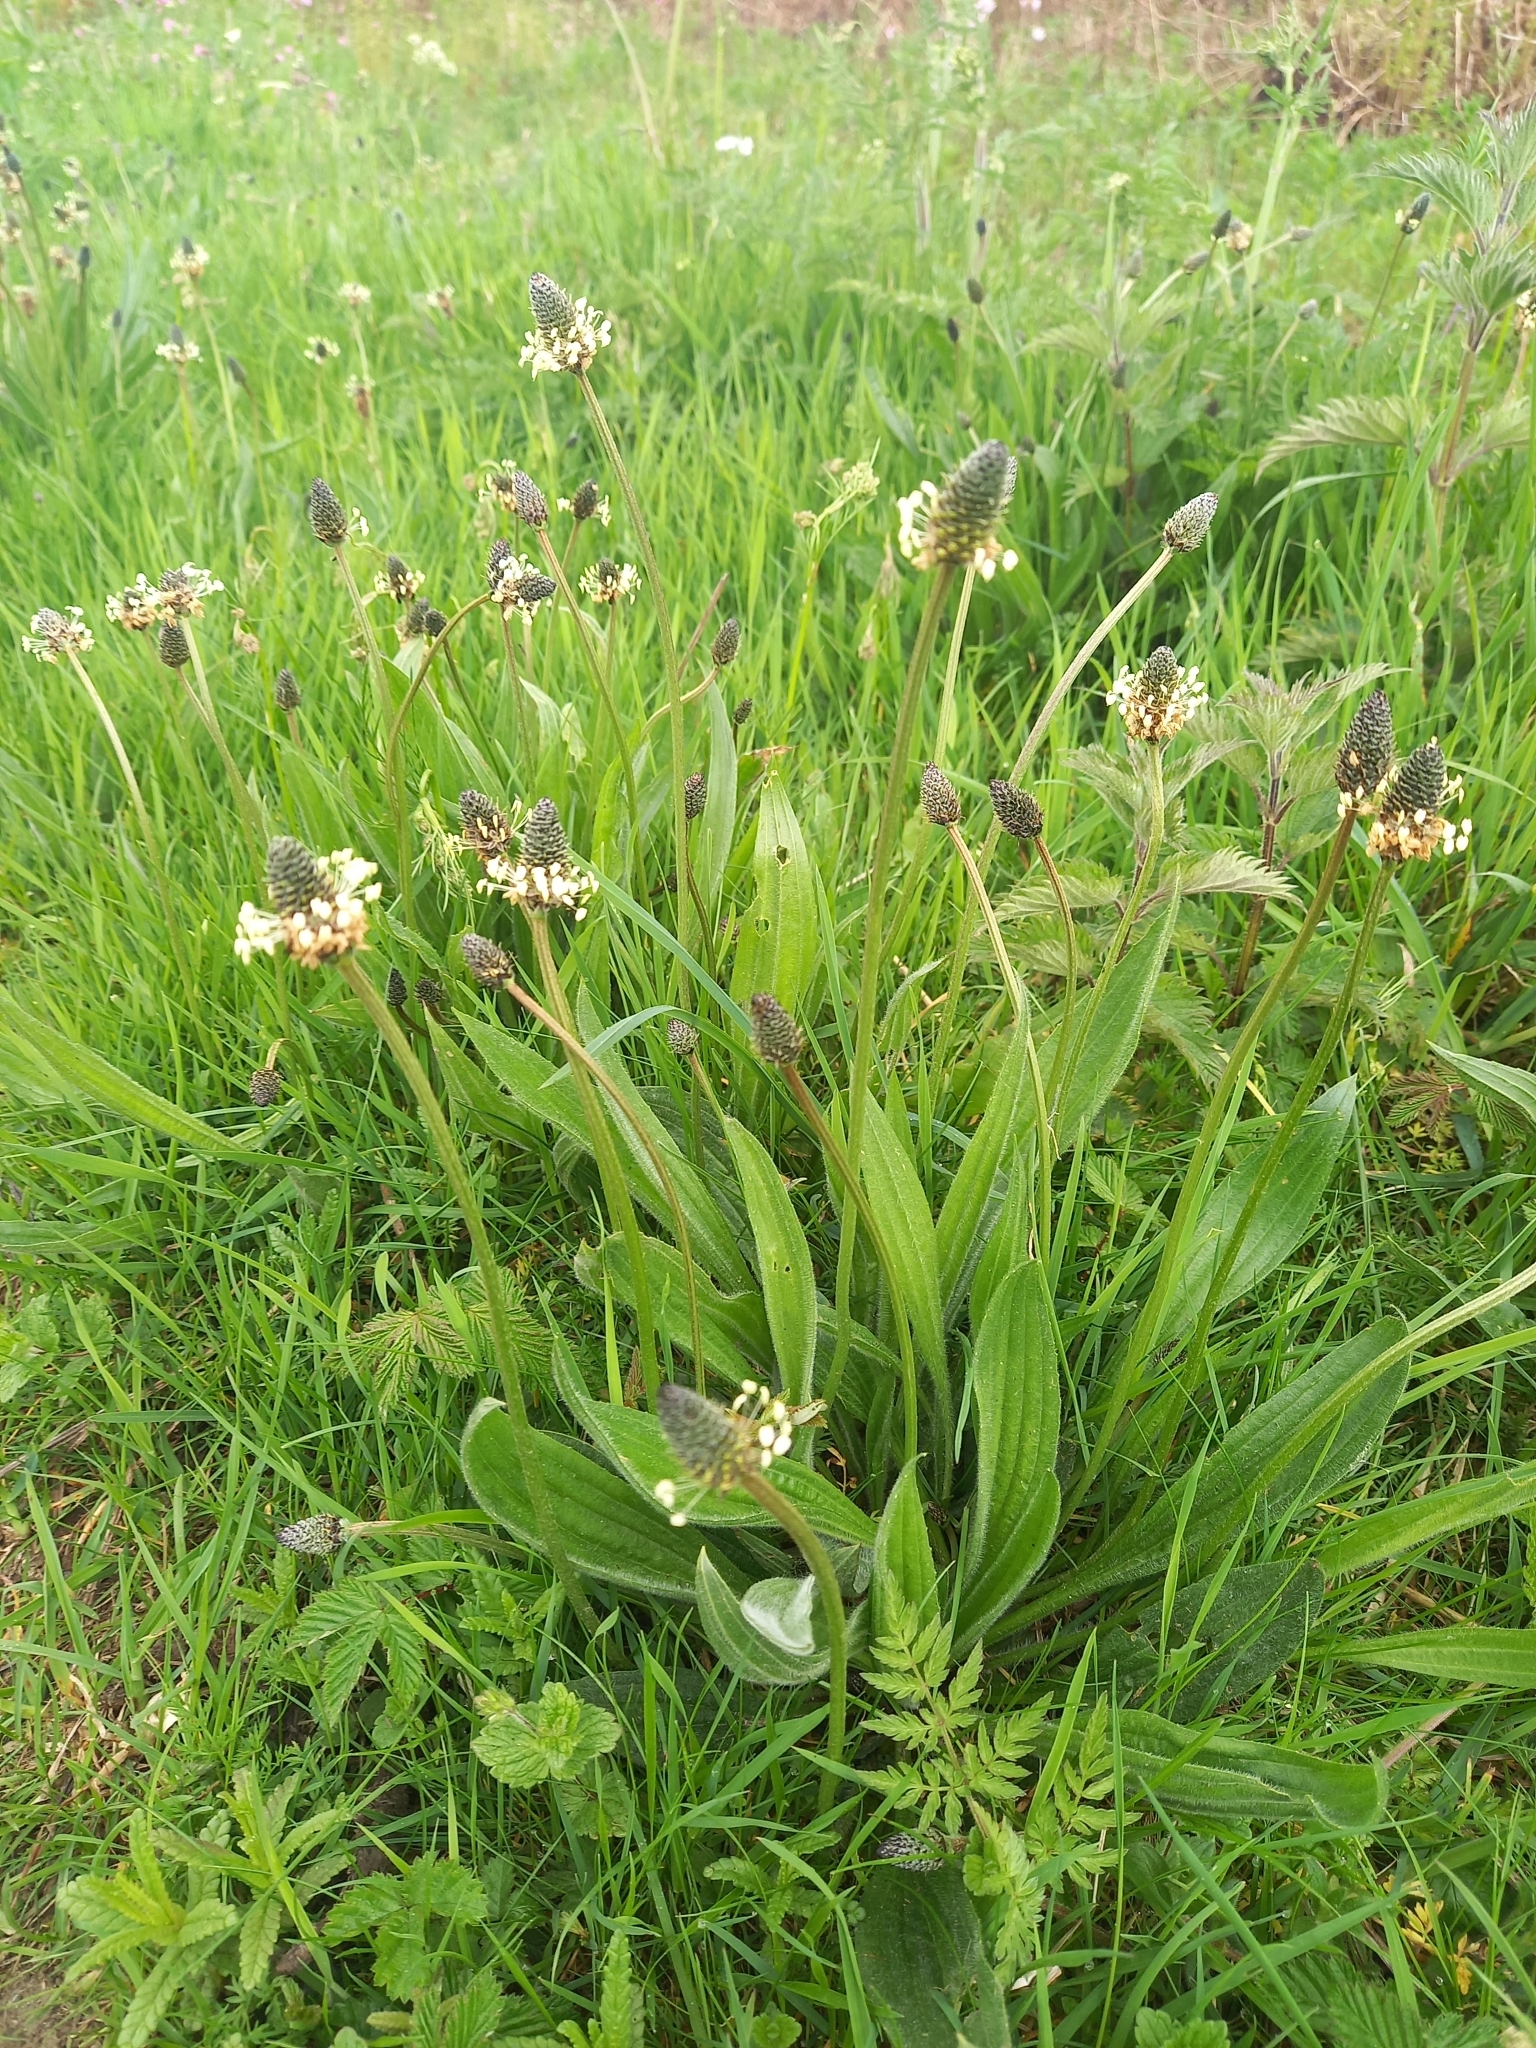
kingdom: Plantae
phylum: Tracheophyta
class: Magnoliopsida
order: Lamiales
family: Plantaginaceae
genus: Plantago
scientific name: Plantago lanceolata
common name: Ribwort plantain
